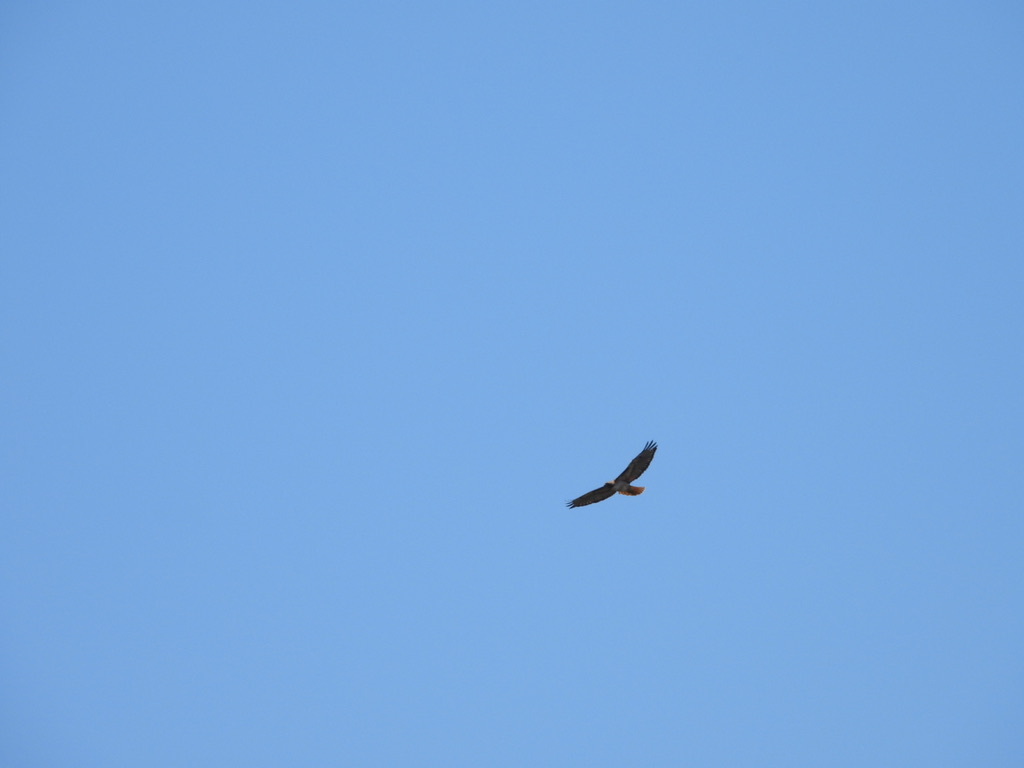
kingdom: Animalia
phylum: Chordata
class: Aves
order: Accipitriformes
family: Accipitridae
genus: Buteo
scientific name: Buteo jamaicensis
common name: Red-tailed hawk
